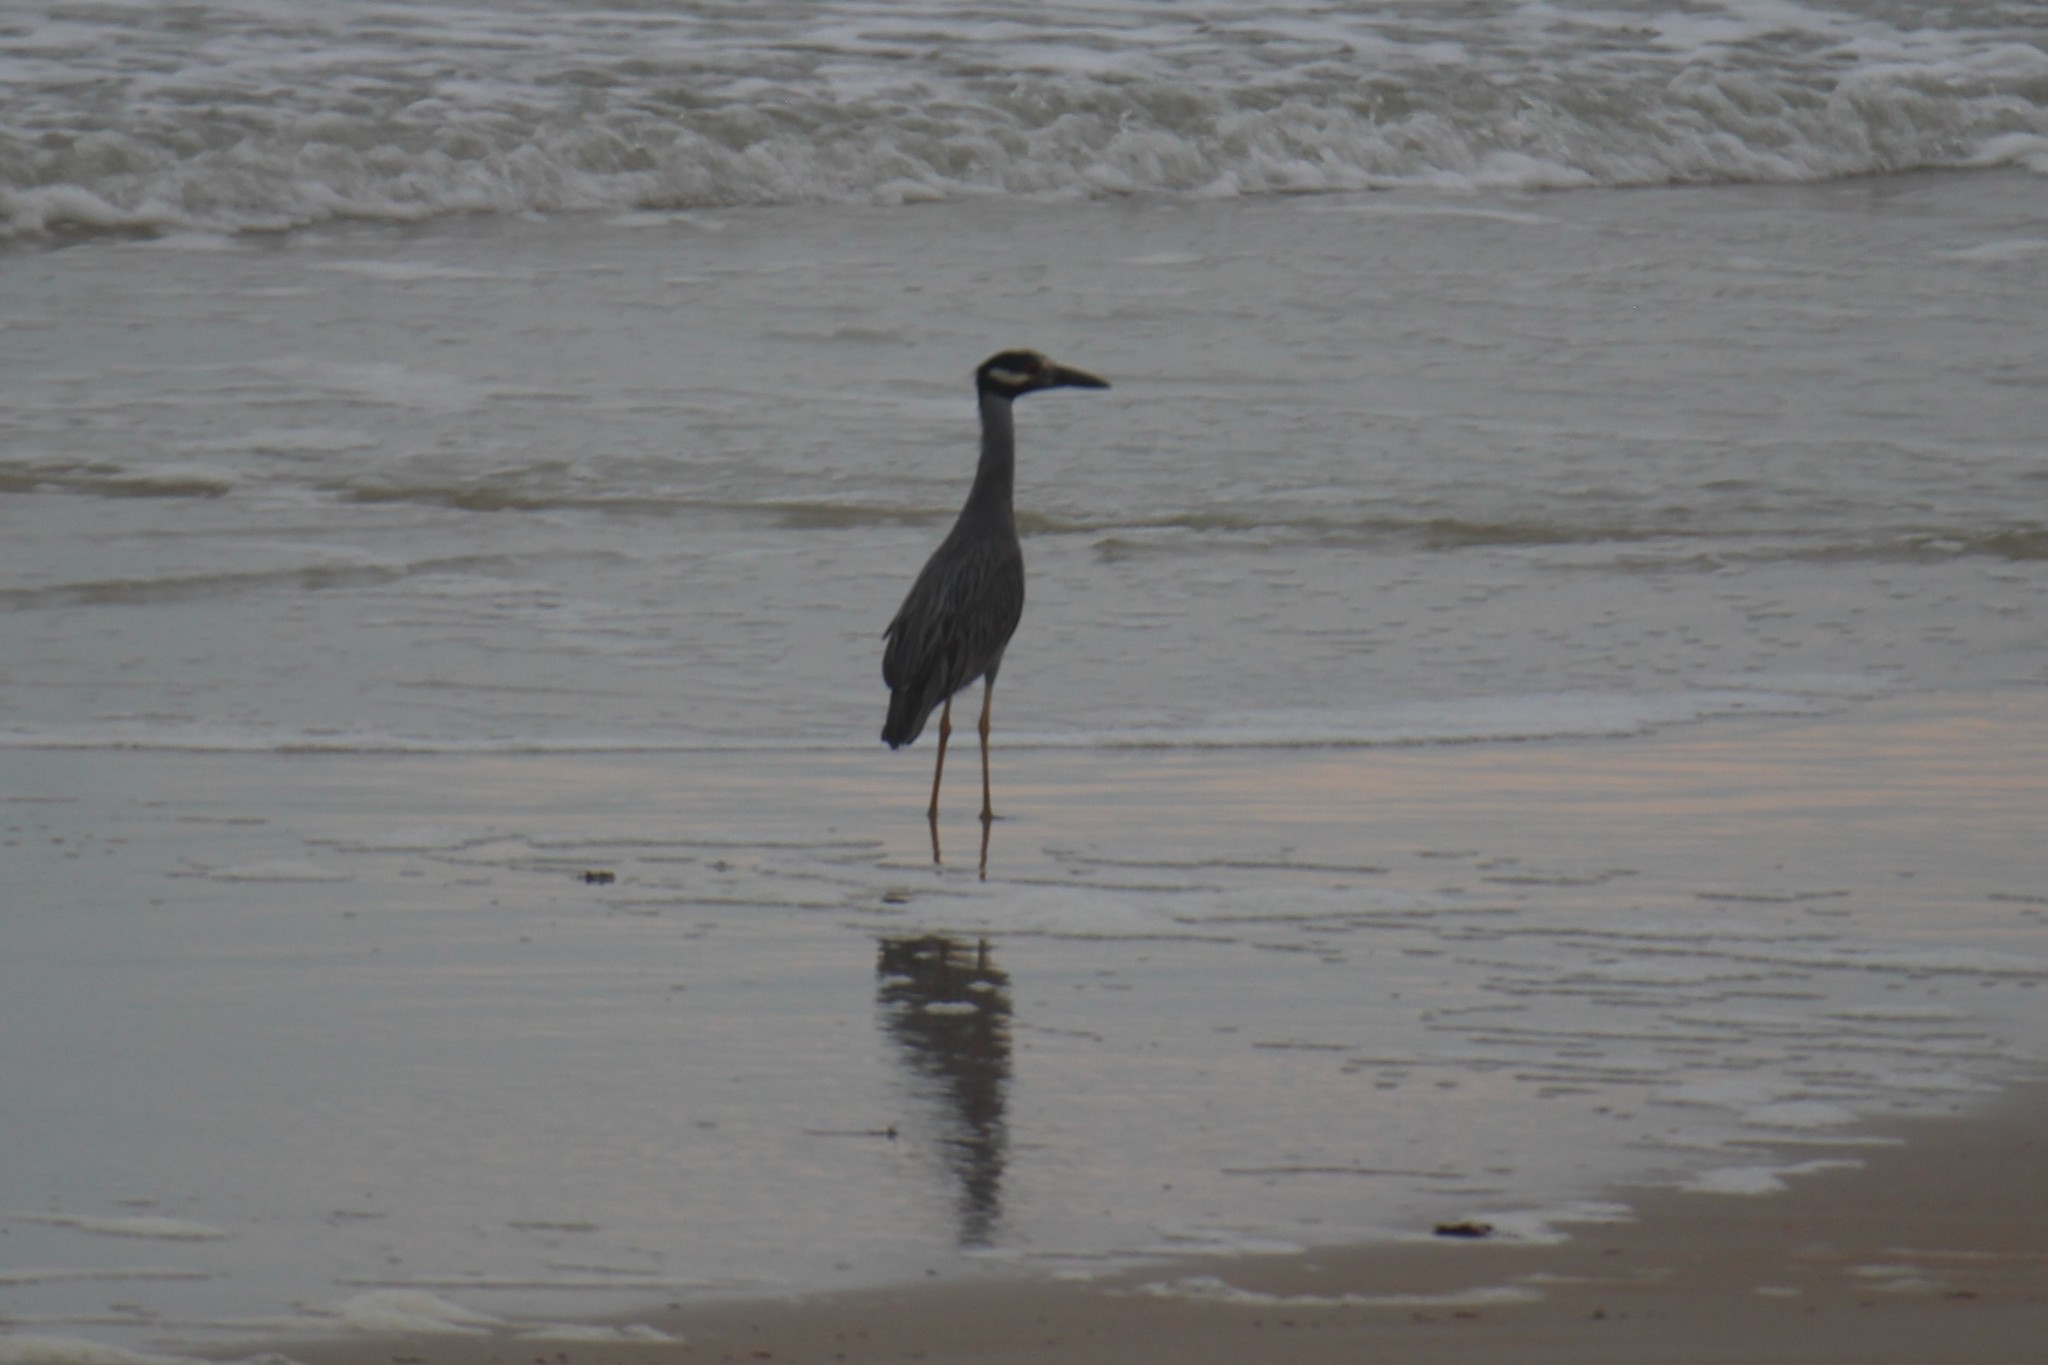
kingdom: Animalia
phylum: Chordata
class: Aves
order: Pelecaniformes
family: Ardeidae
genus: Nyctanassa
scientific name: Nyctanassa violacea
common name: Yellow-crowned night heron
